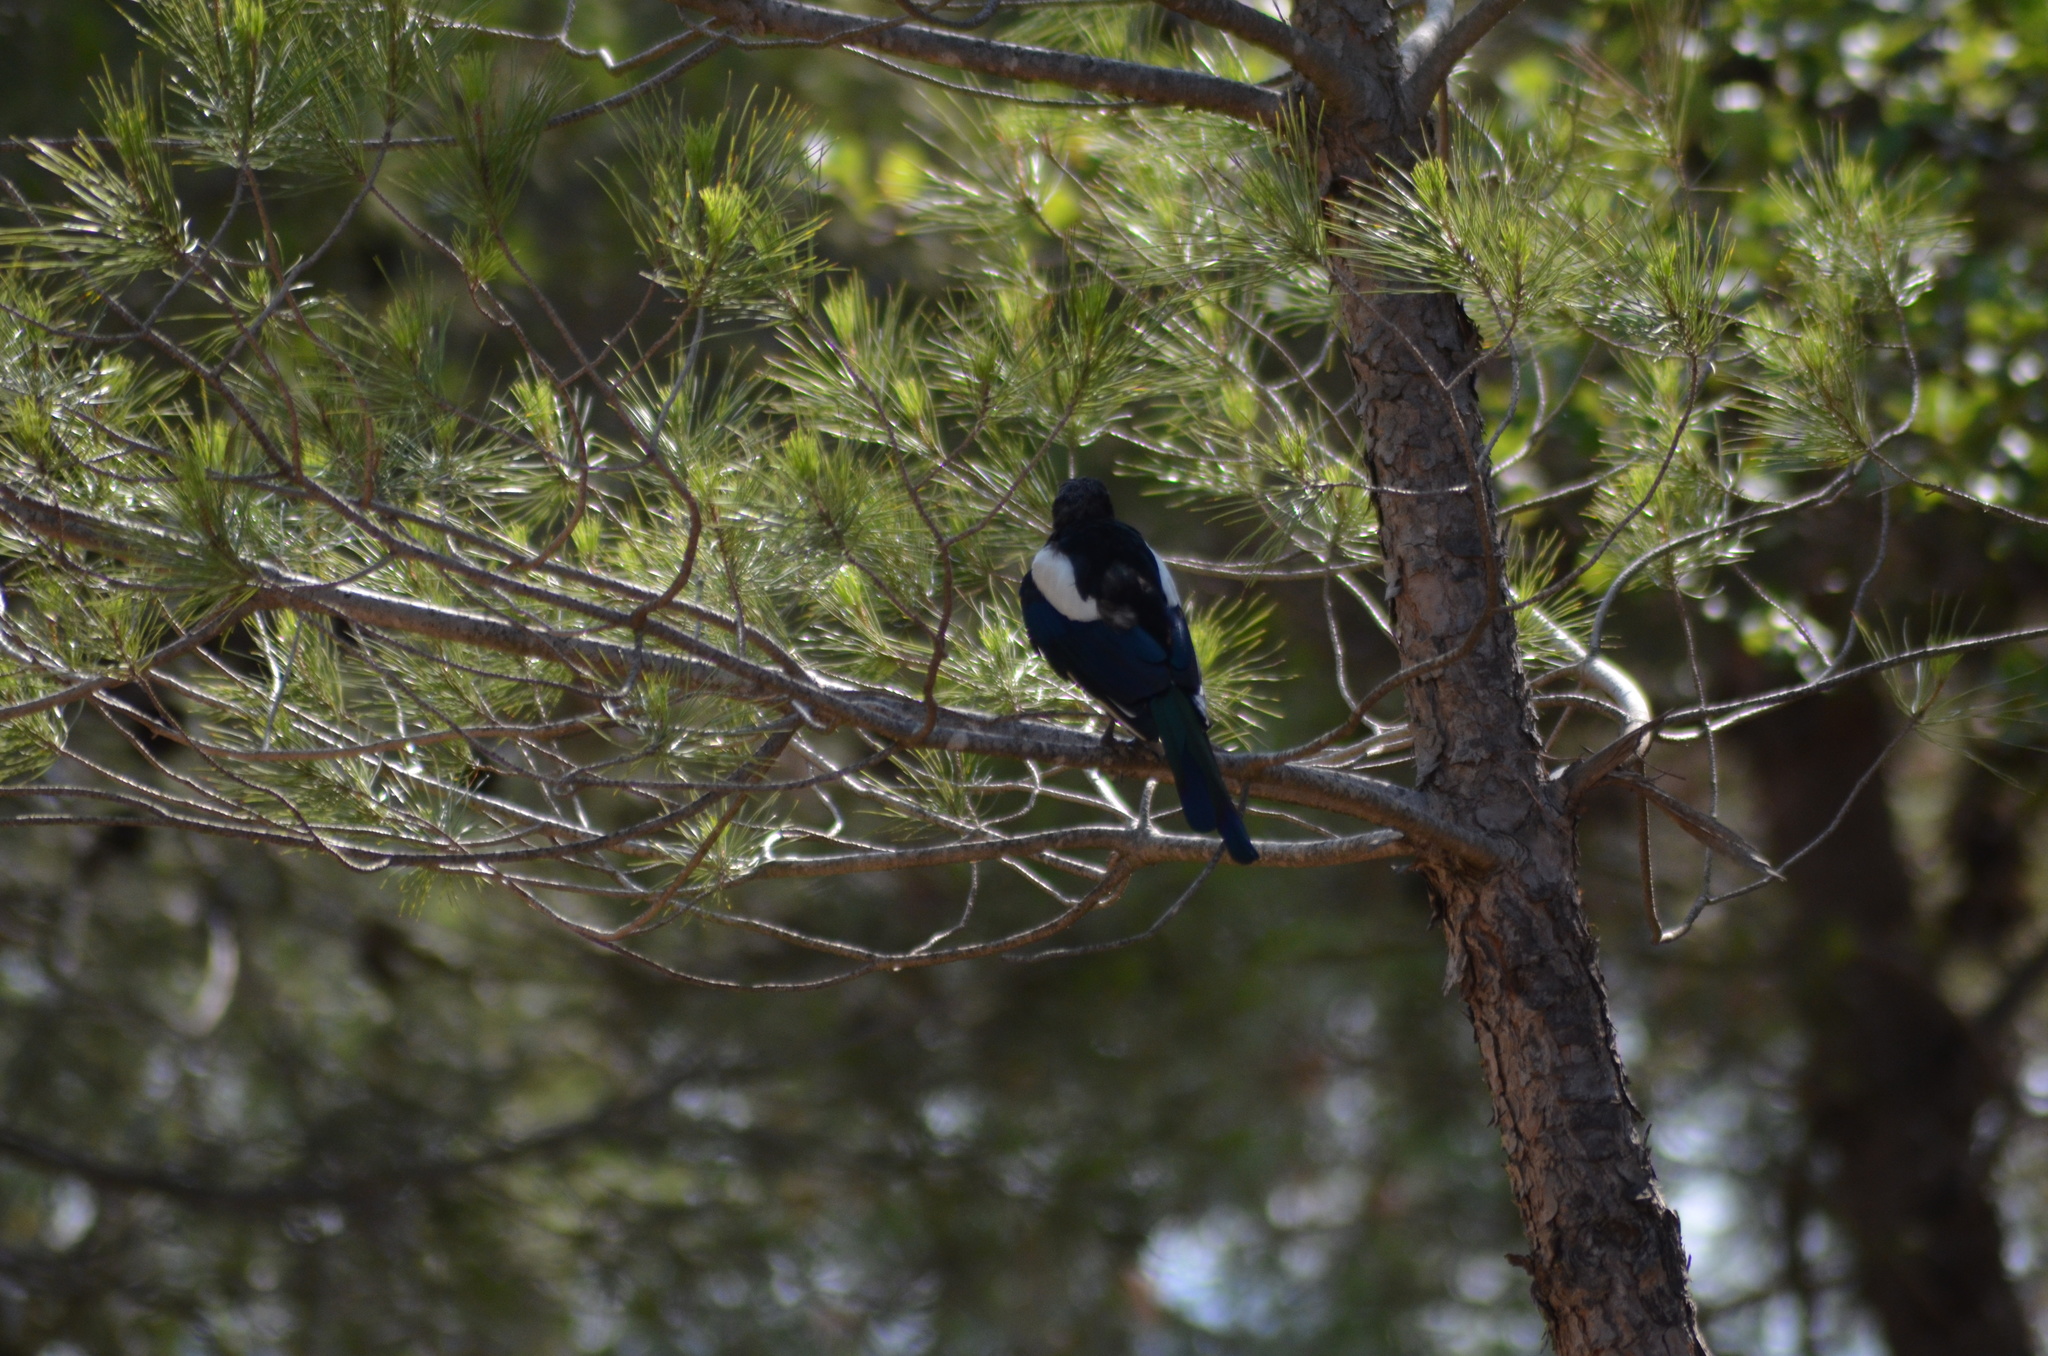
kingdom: Animalia
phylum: Chordata
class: Aves
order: Passeriformes
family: Corvidae
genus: Pica
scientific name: Pica pica
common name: Eurasian magpie
